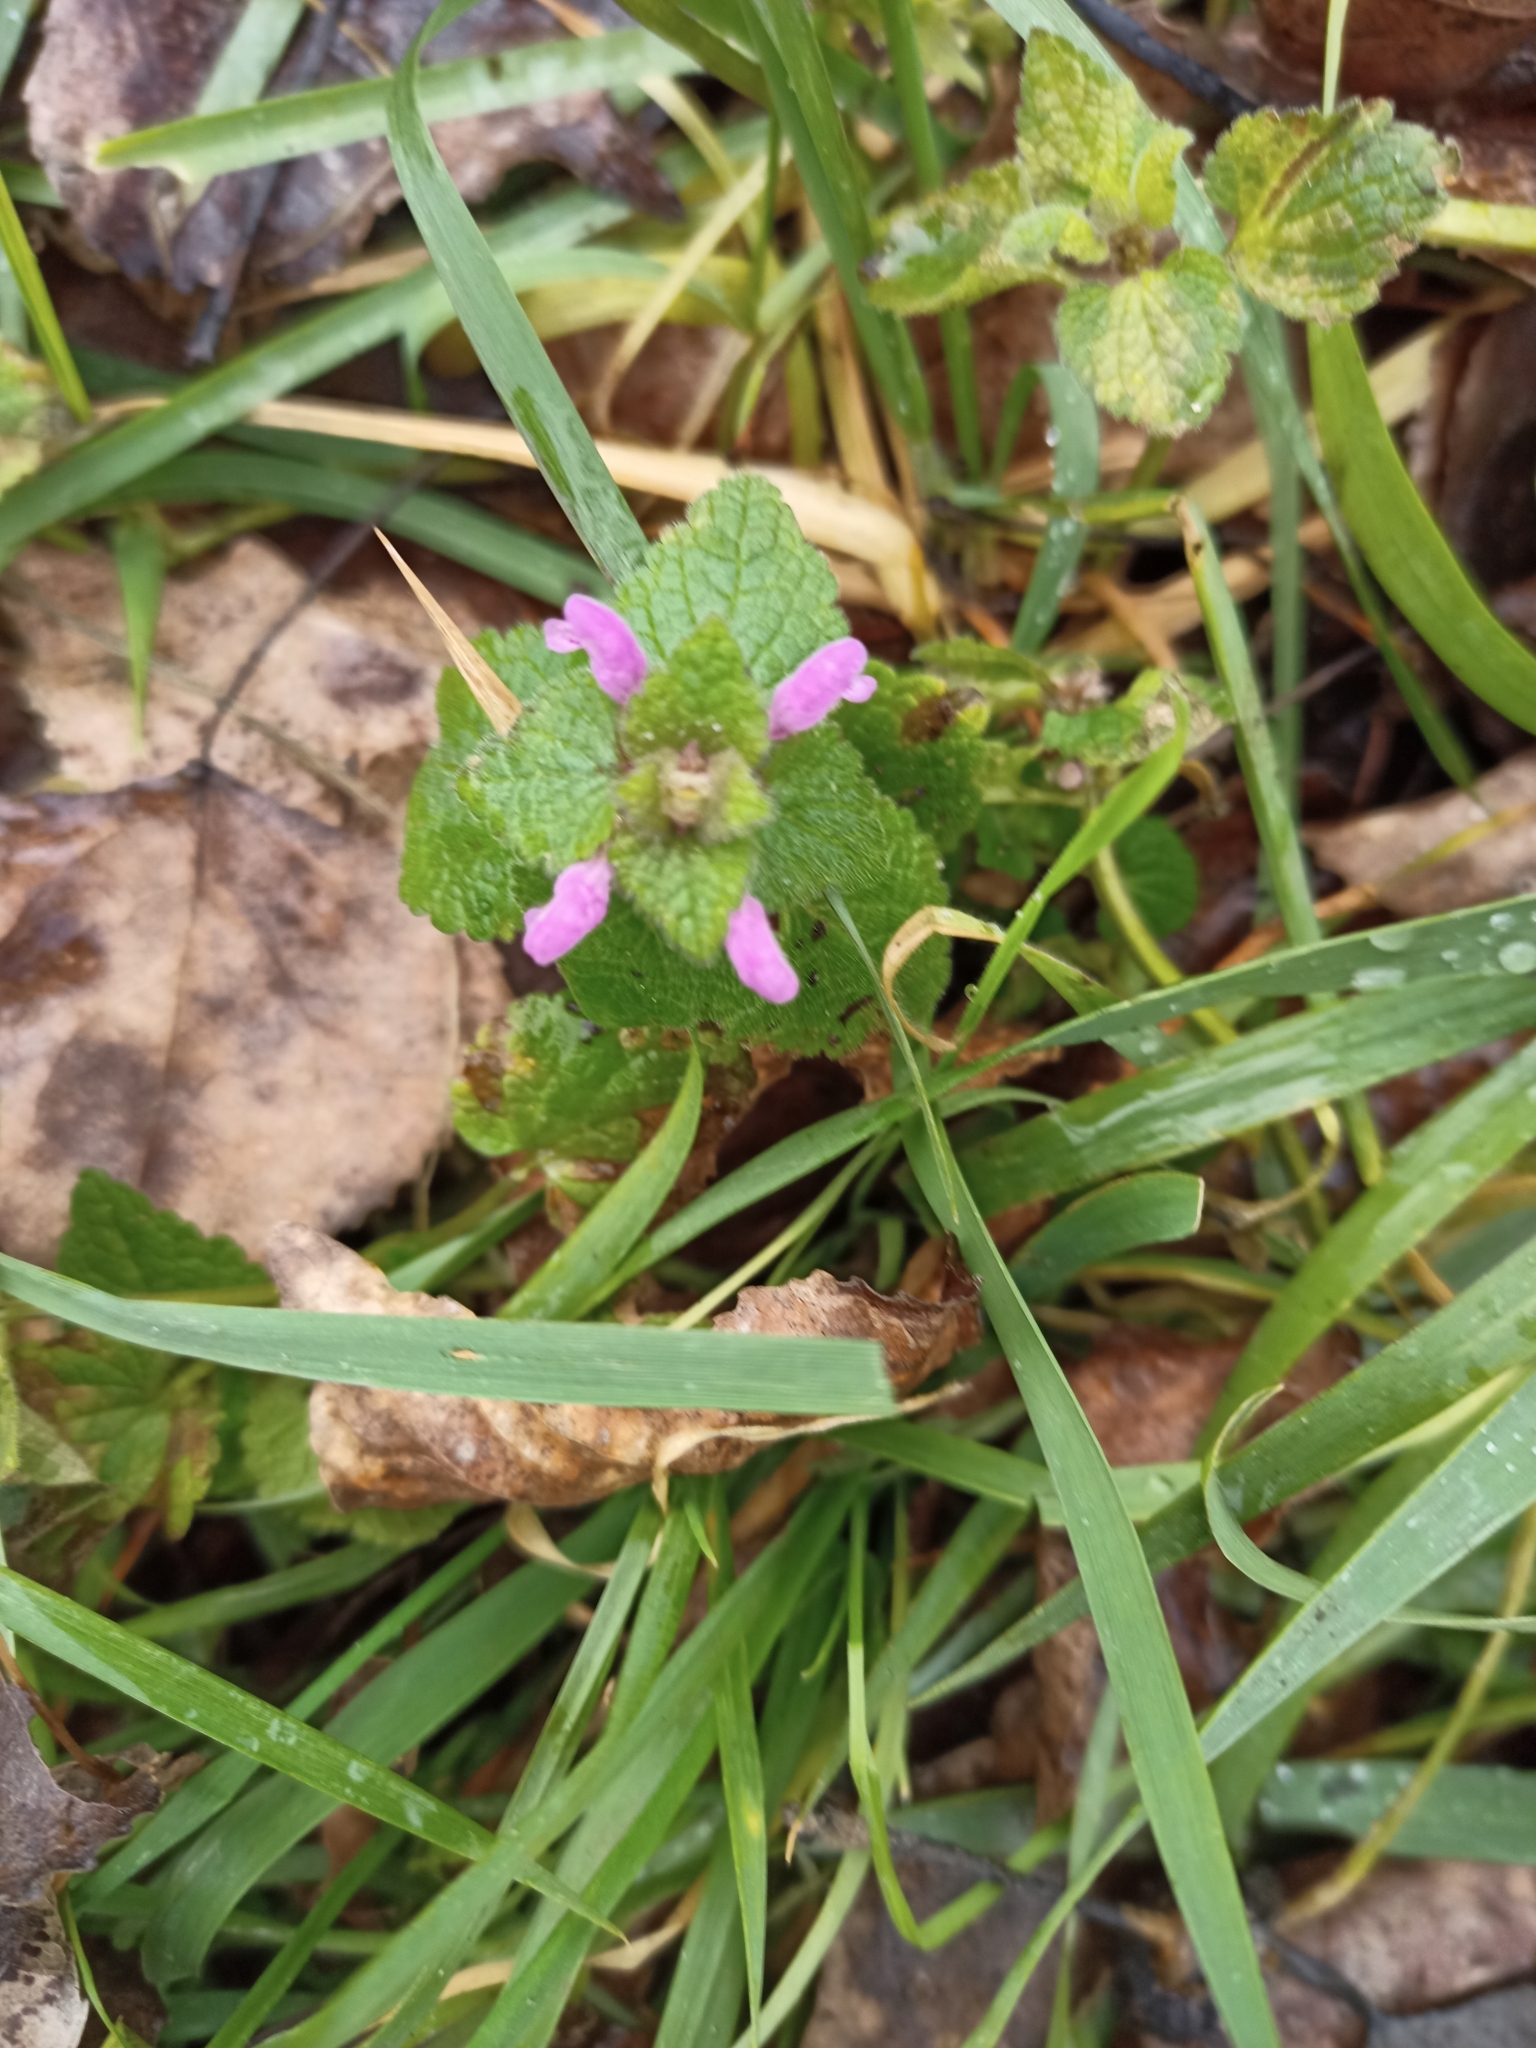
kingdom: Plantae
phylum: Tracheophyta
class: Magnoliopsida
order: Lamiales
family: Lamiaceae
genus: Lamium
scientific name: Lamium purpureum
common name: Red dead-nettle
